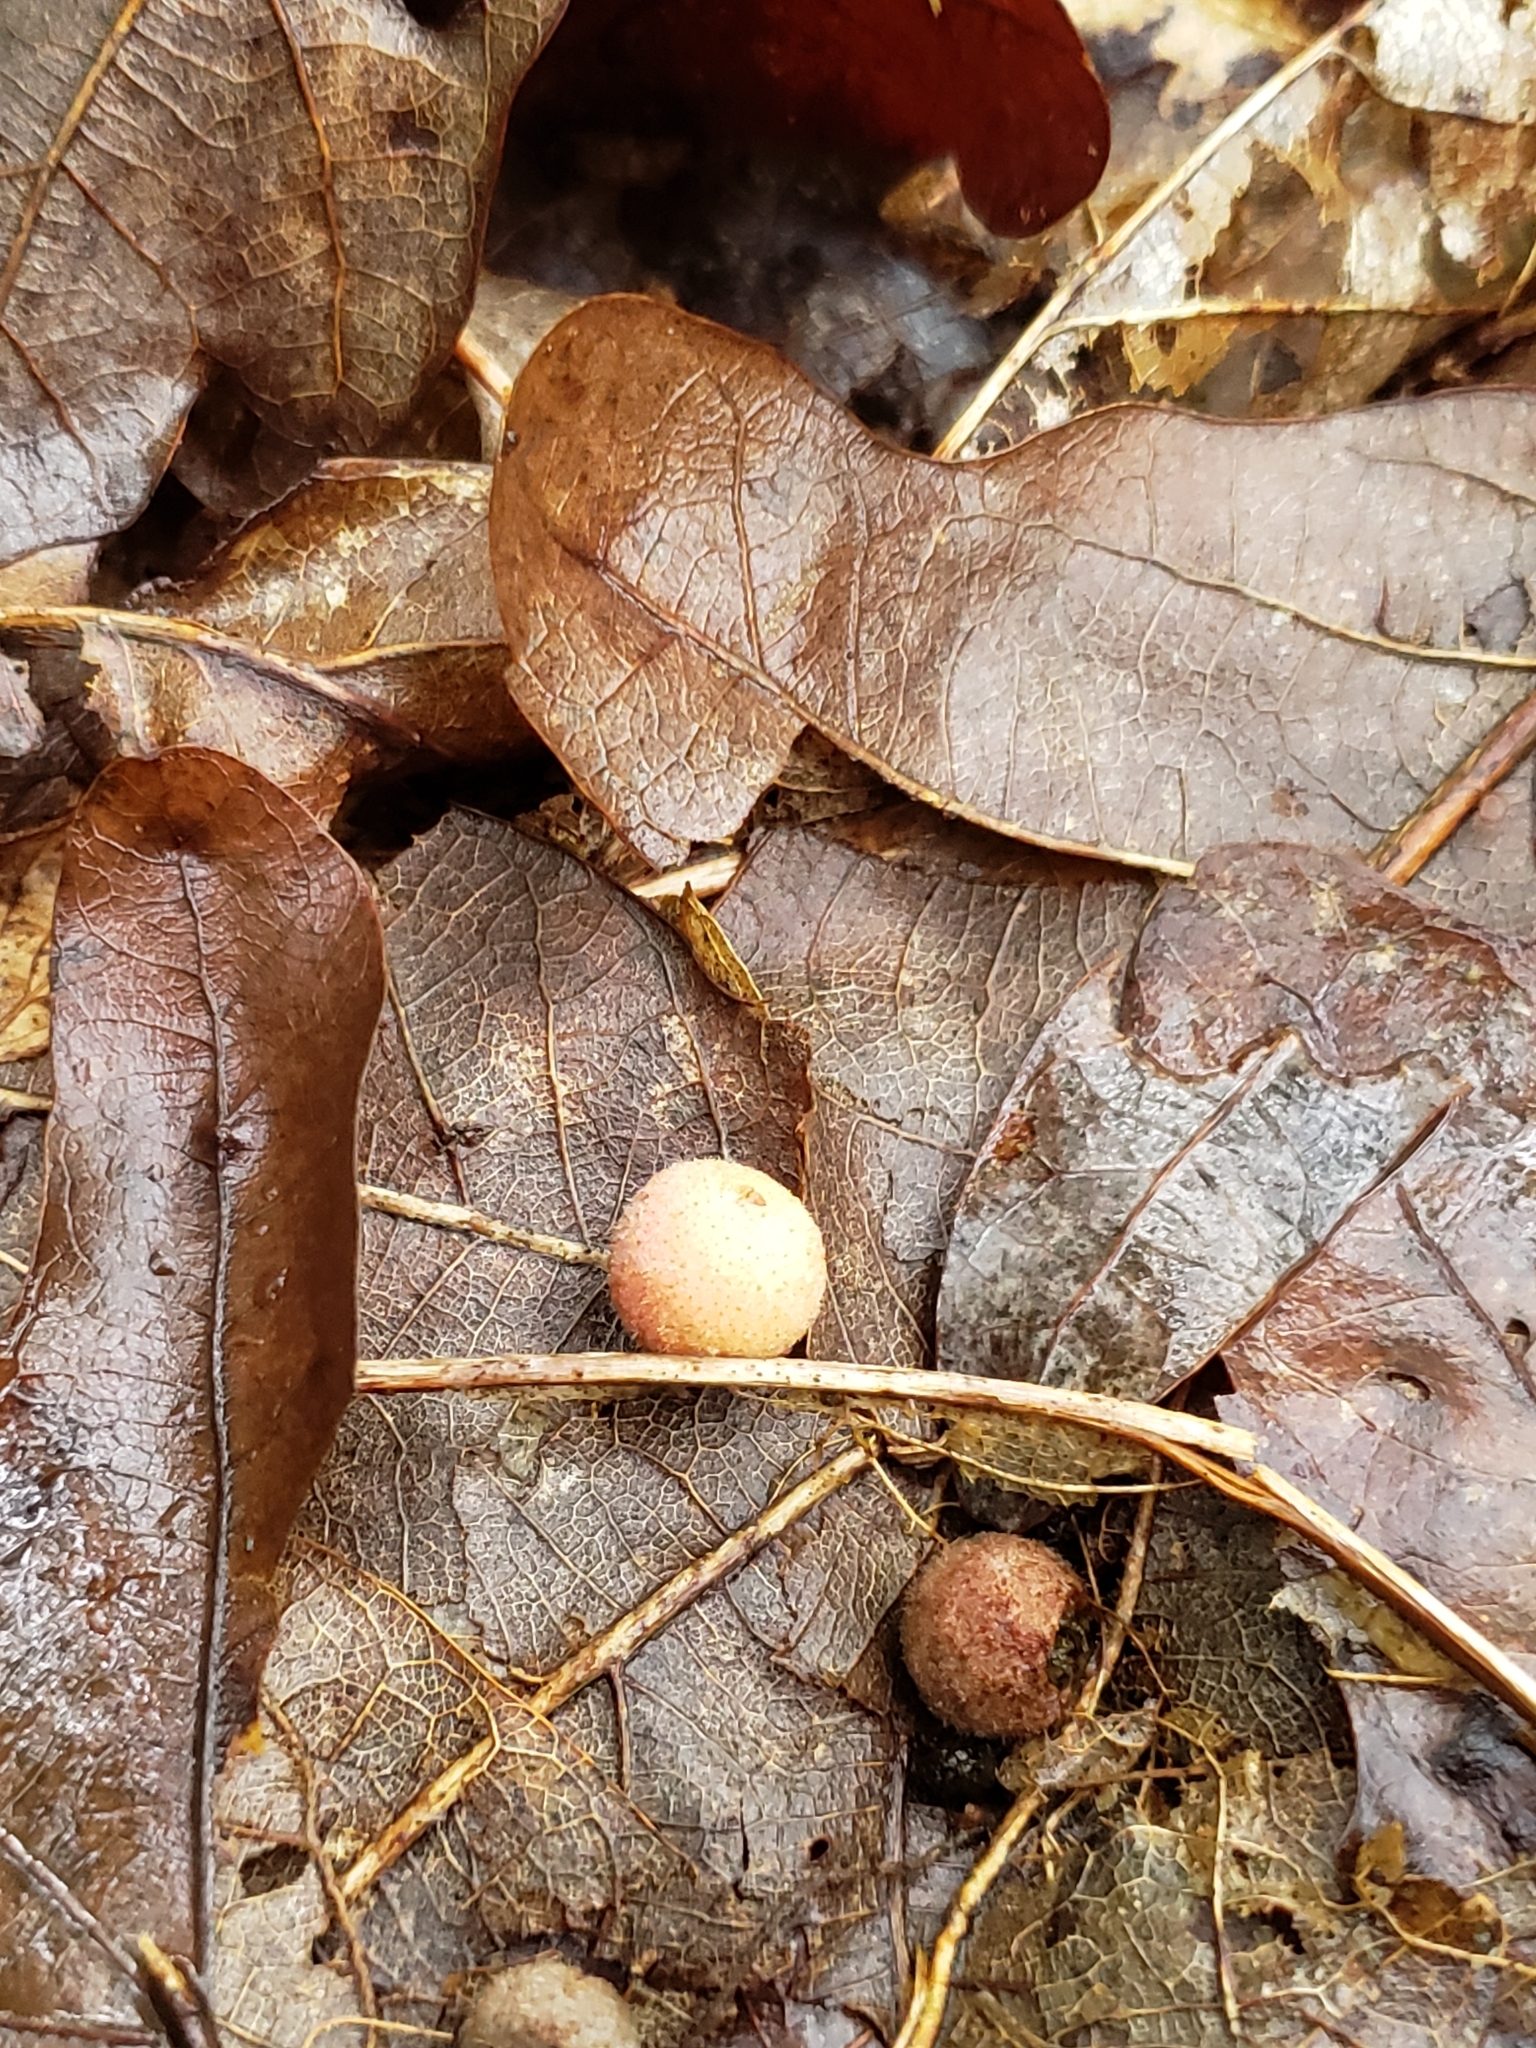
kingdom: Animalia
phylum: Arthropoda
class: Insecta
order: Hymenoptera
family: Cynipidae
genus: Philonix
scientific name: Philonix fulvicollis
